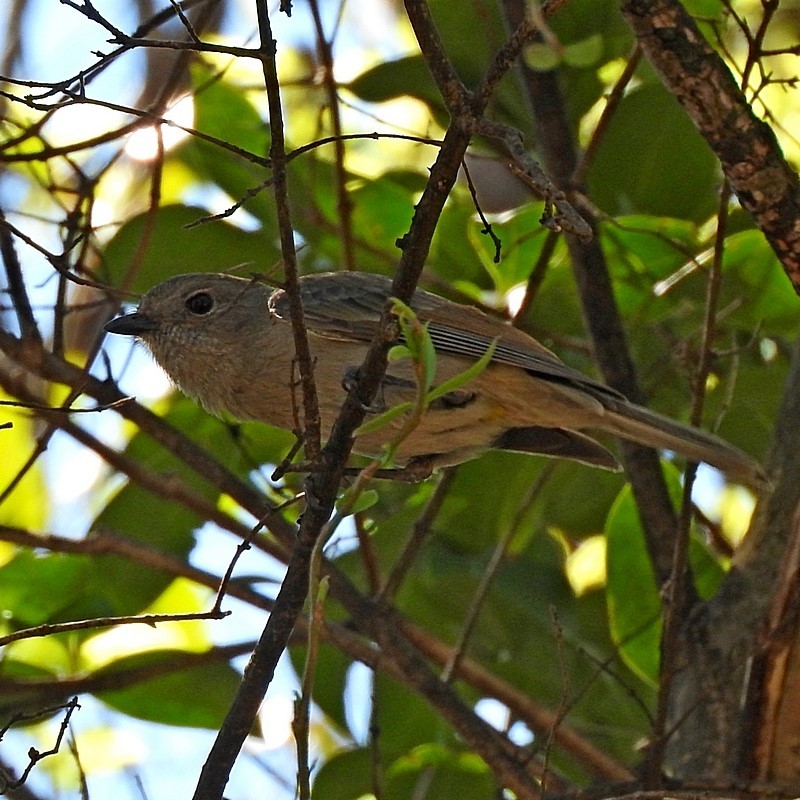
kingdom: Animalia
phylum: Chordata
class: Aves
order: Passeriformes
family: Pachycephalidae
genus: Pachycephala
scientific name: Pachycephala pectoralis
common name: Australian golden whistler
